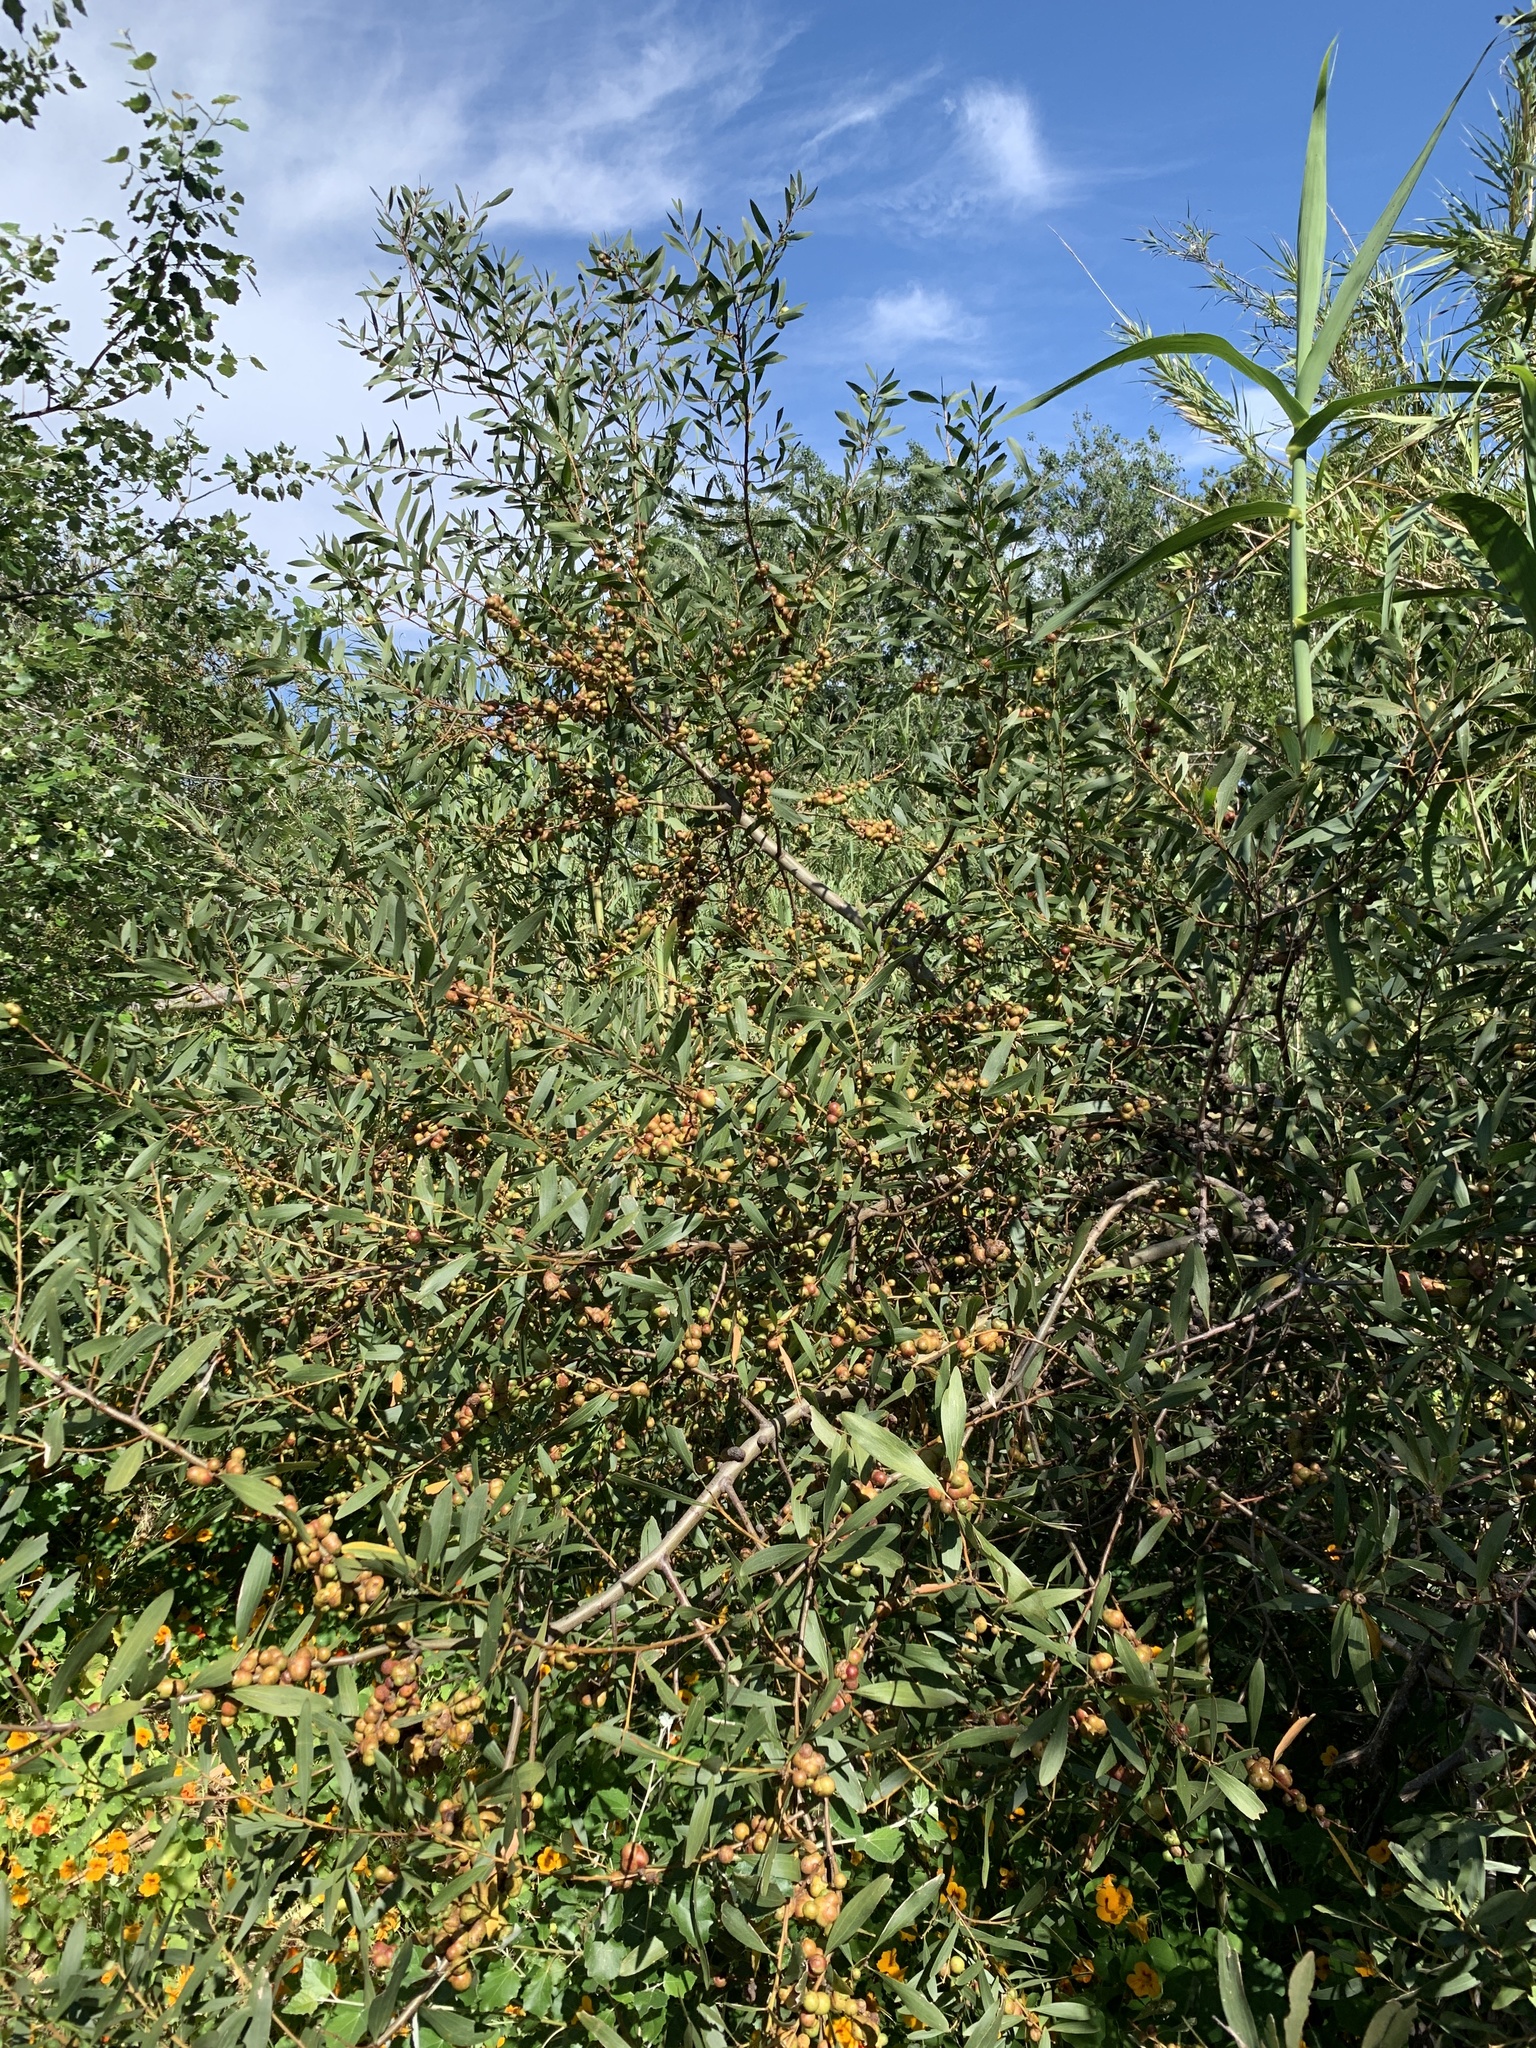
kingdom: Plantae
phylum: Tracheophyta
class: Magnoliopsida
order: Fabales
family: Fabaceae
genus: Acacia
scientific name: Acacia longifolia
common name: Sydney golden wattle
